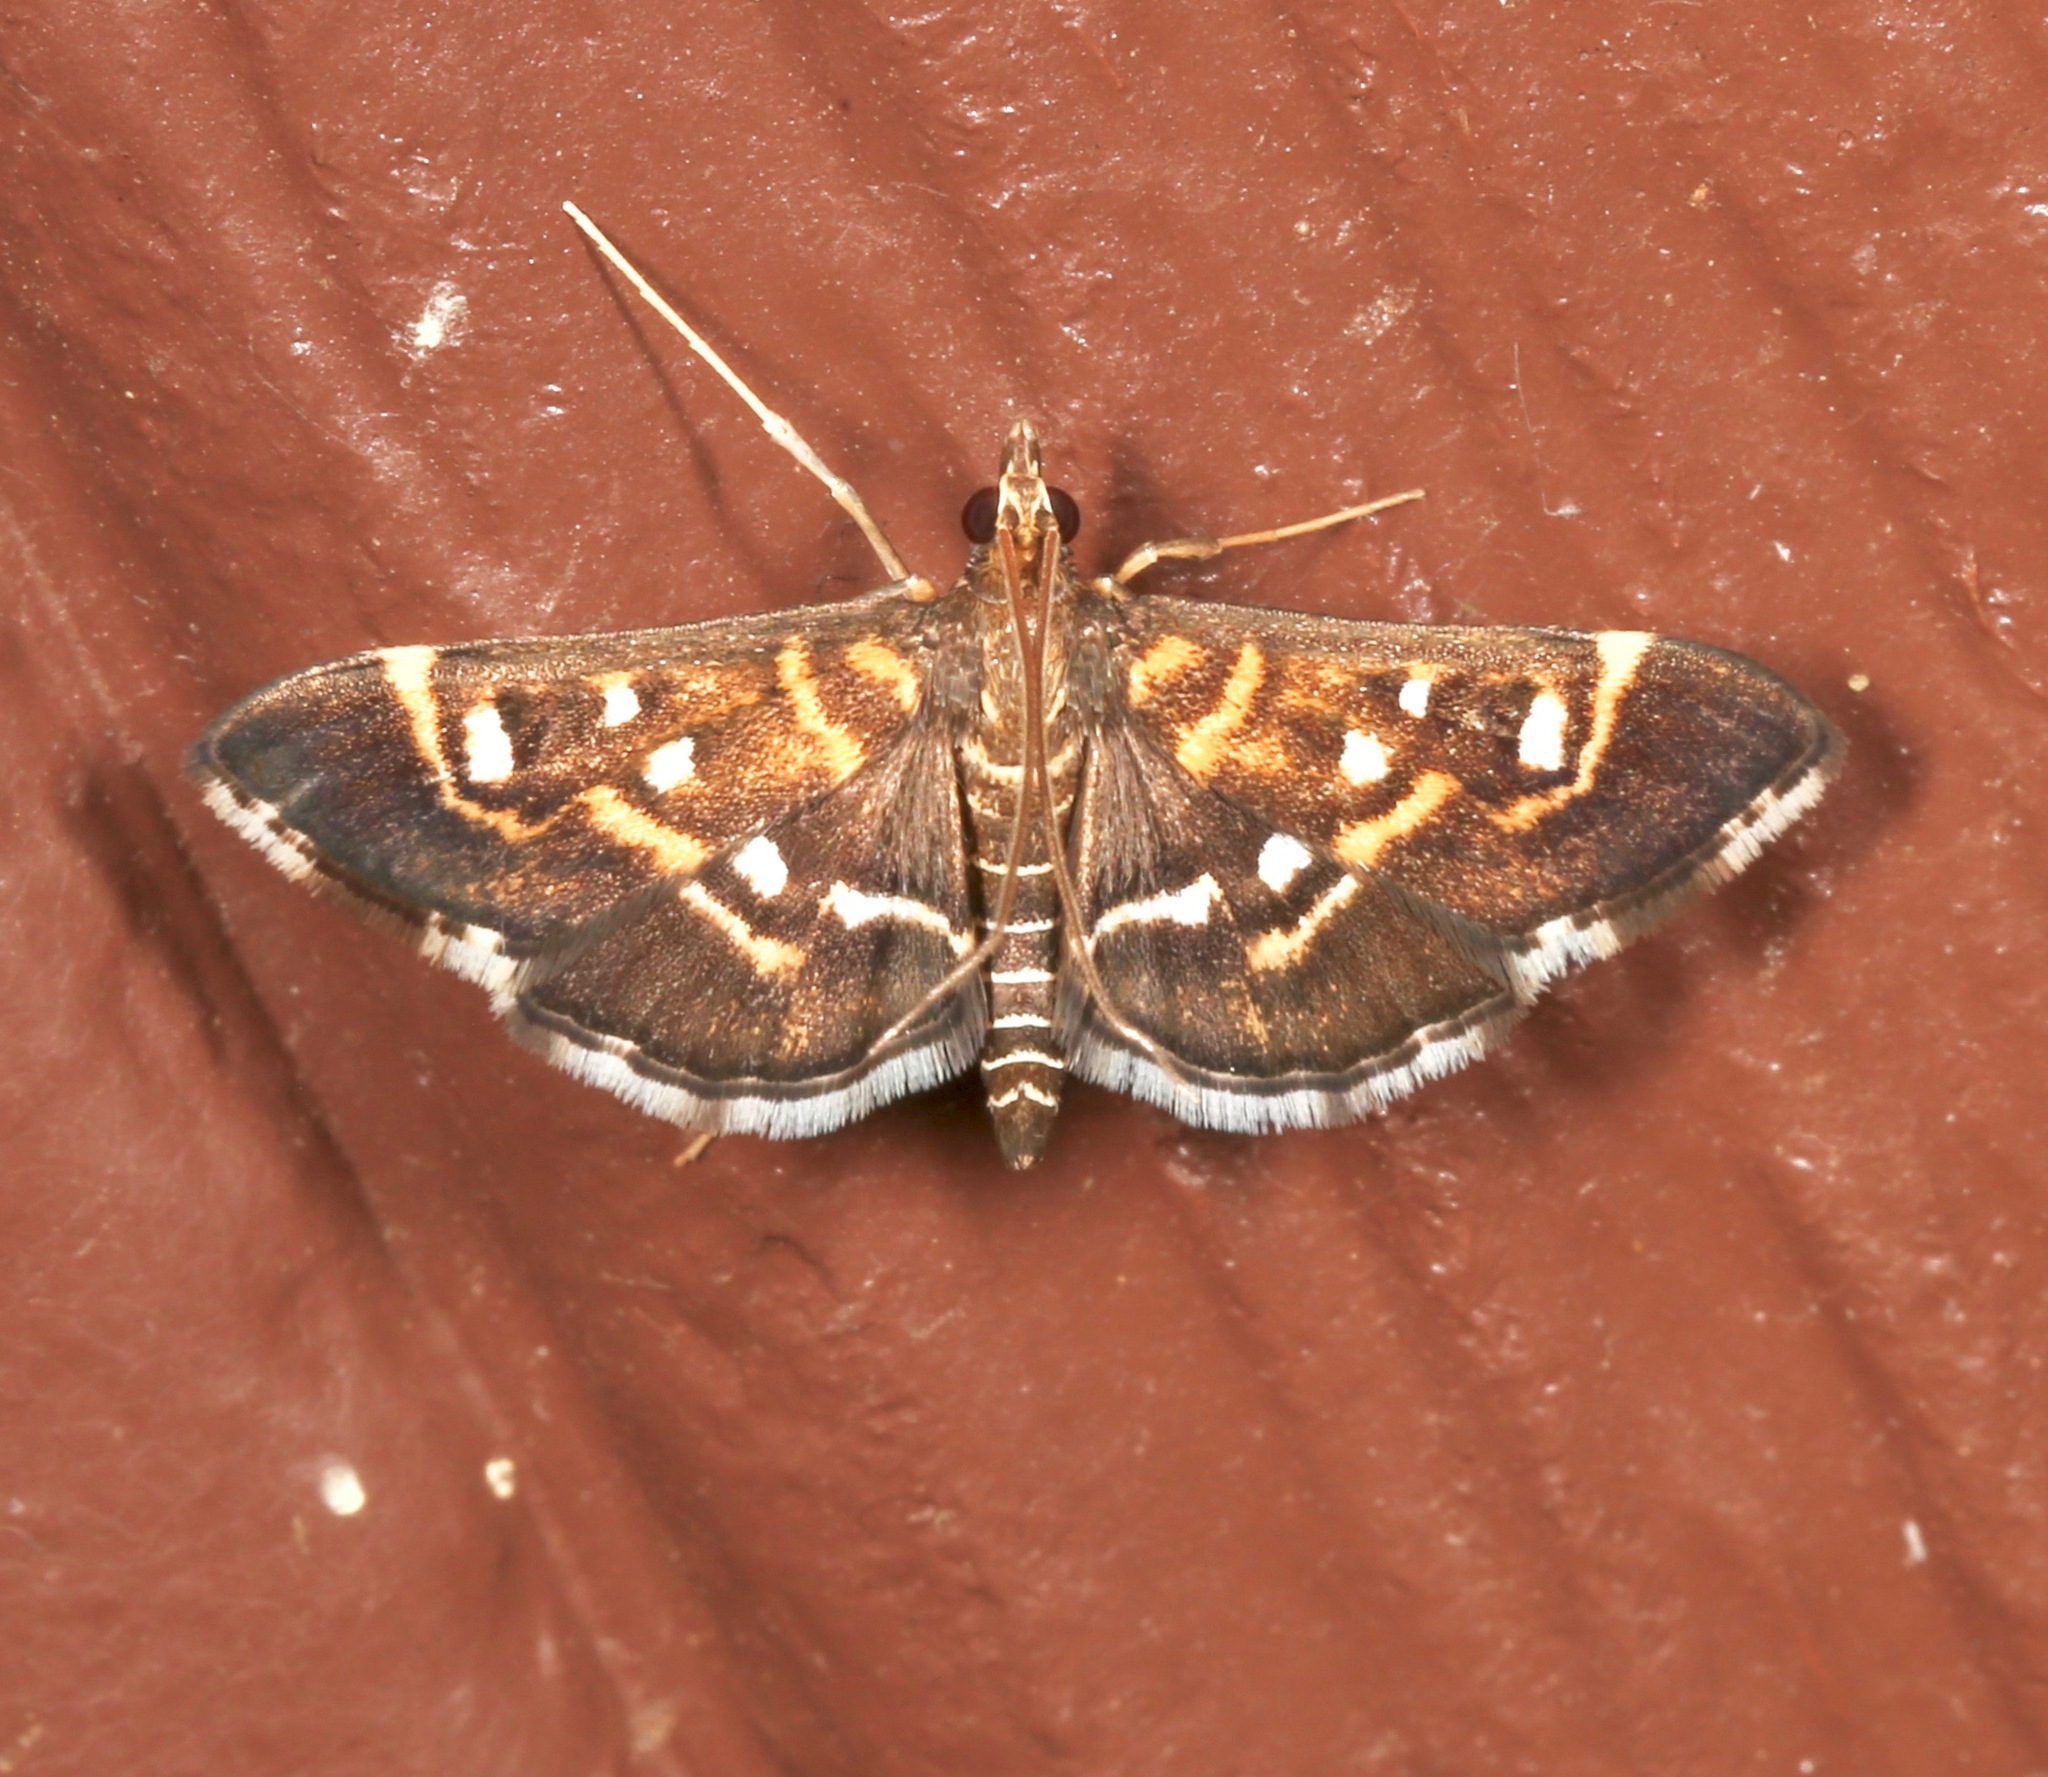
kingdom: Animalia
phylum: Arthropoda
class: Insecta
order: Lepidoptera
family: Crambidae
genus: Diathrausta
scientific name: Diathrausta harlequinalis
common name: Harlequin webworm moth
